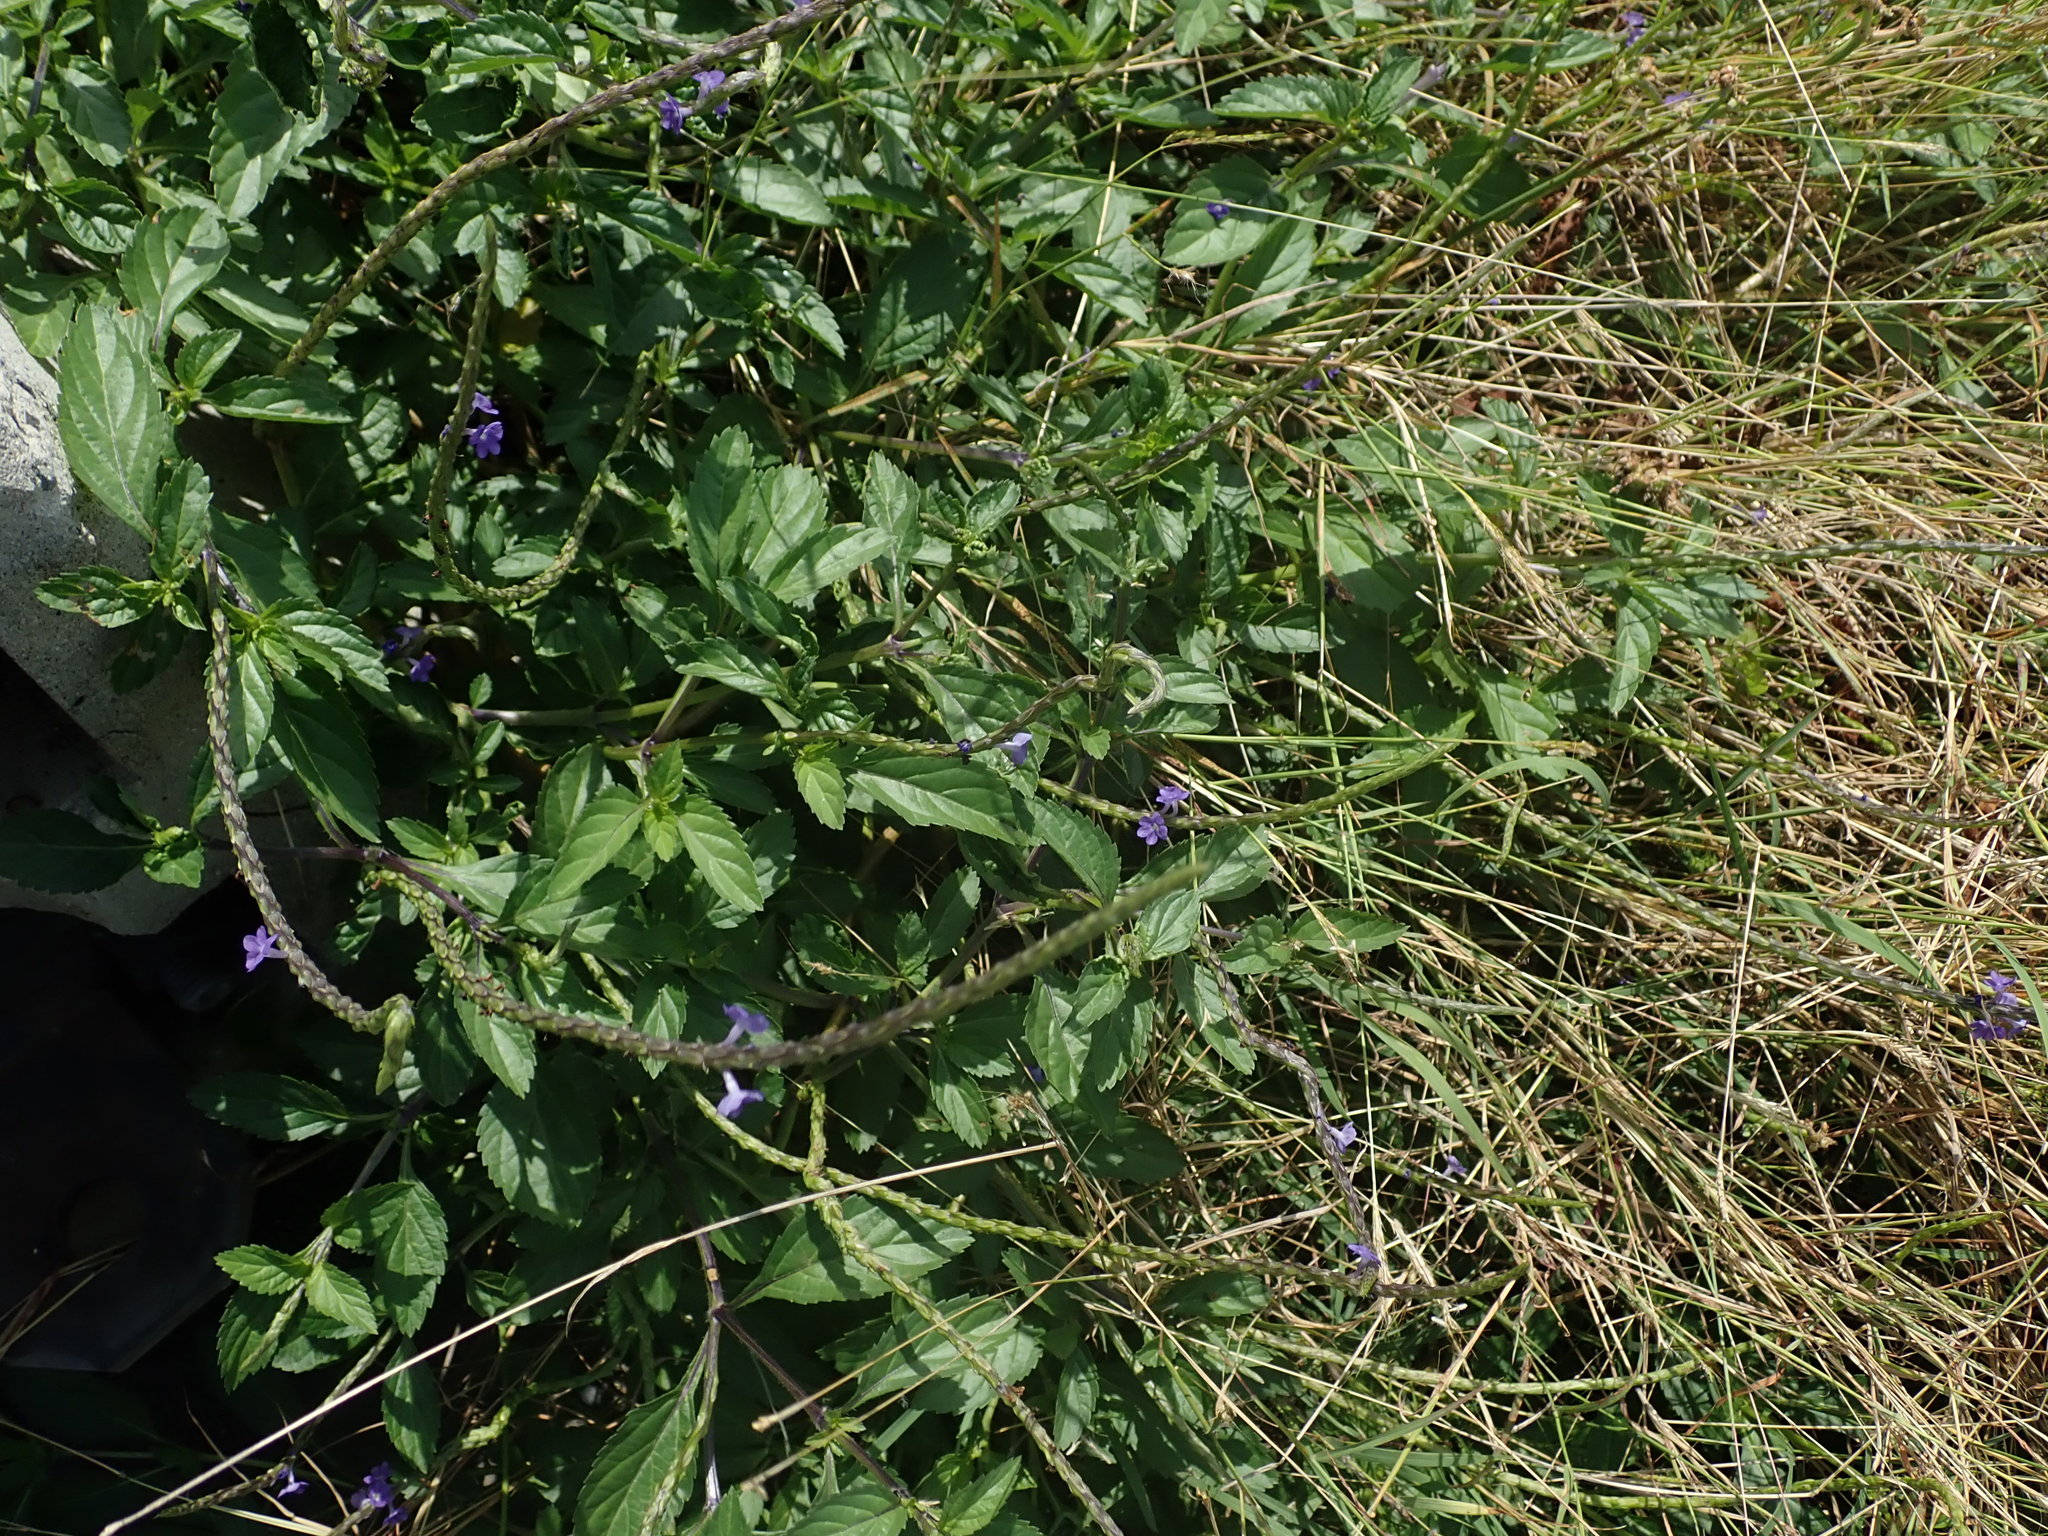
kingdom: Plantae
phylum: Tracheophyta
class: Magnoliopsida
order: Lamiales
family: Verbenaceae
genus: Stachytarpheta
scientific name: Stachytarpheta jamaicensis
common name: Light-blue snakeweed
